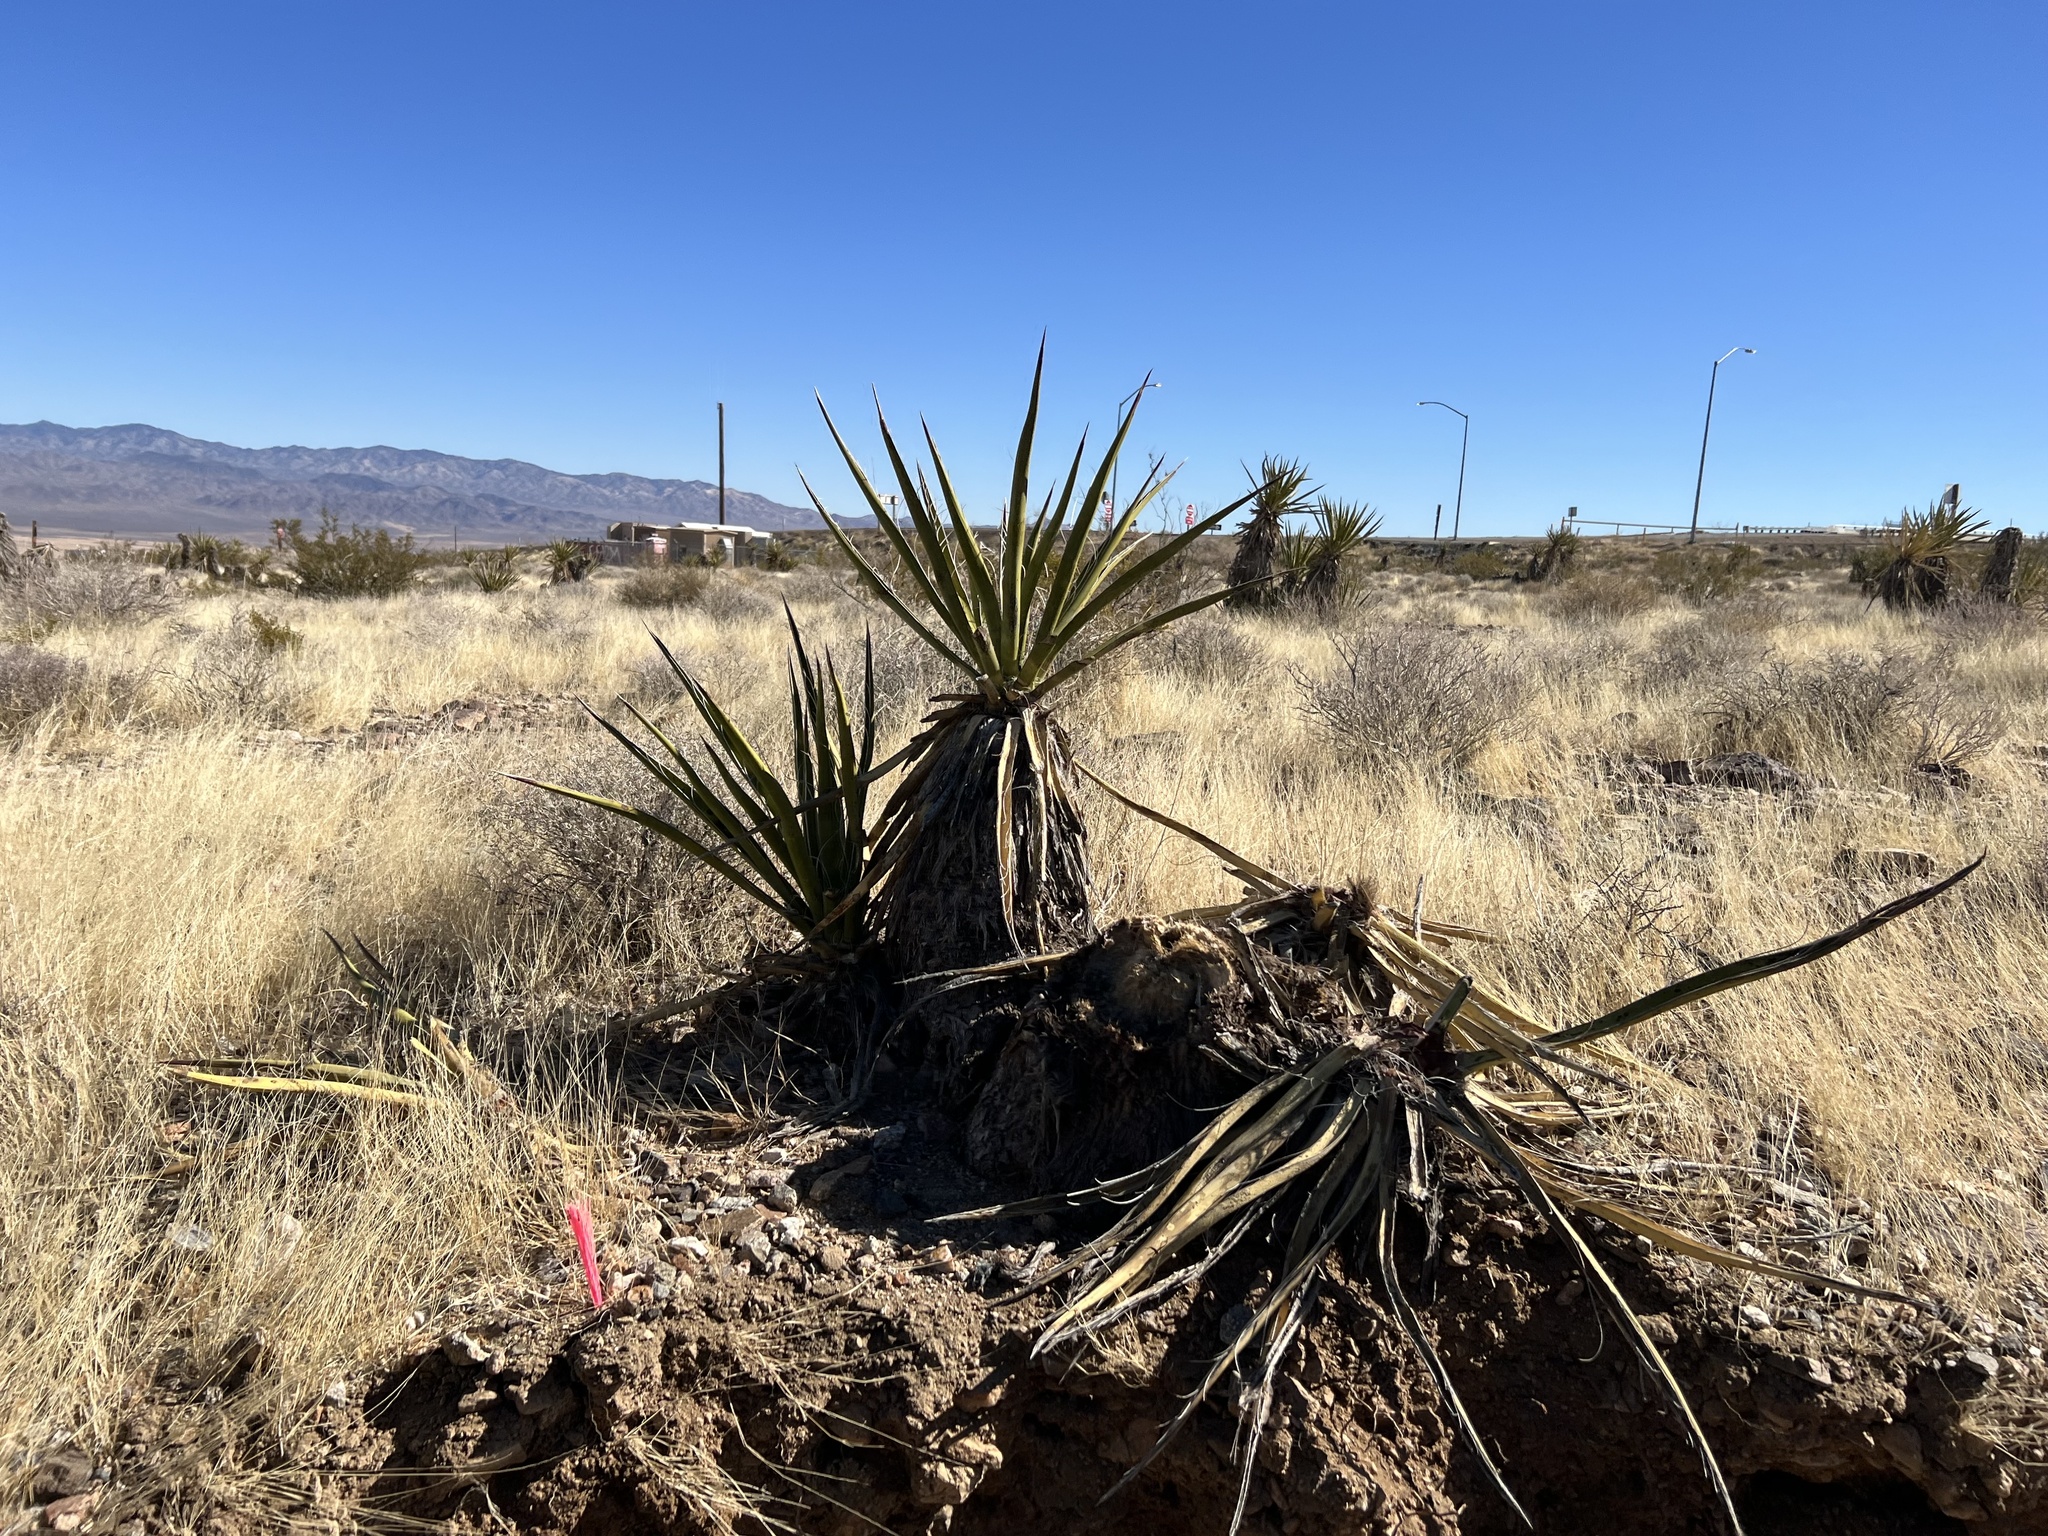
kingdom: Plantae
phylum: Tracheophyta
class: Liliopsida
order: Asparagales
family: Asparagaceae
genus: Yucca
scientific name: Yucca schidigera
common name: Mojave yucca
